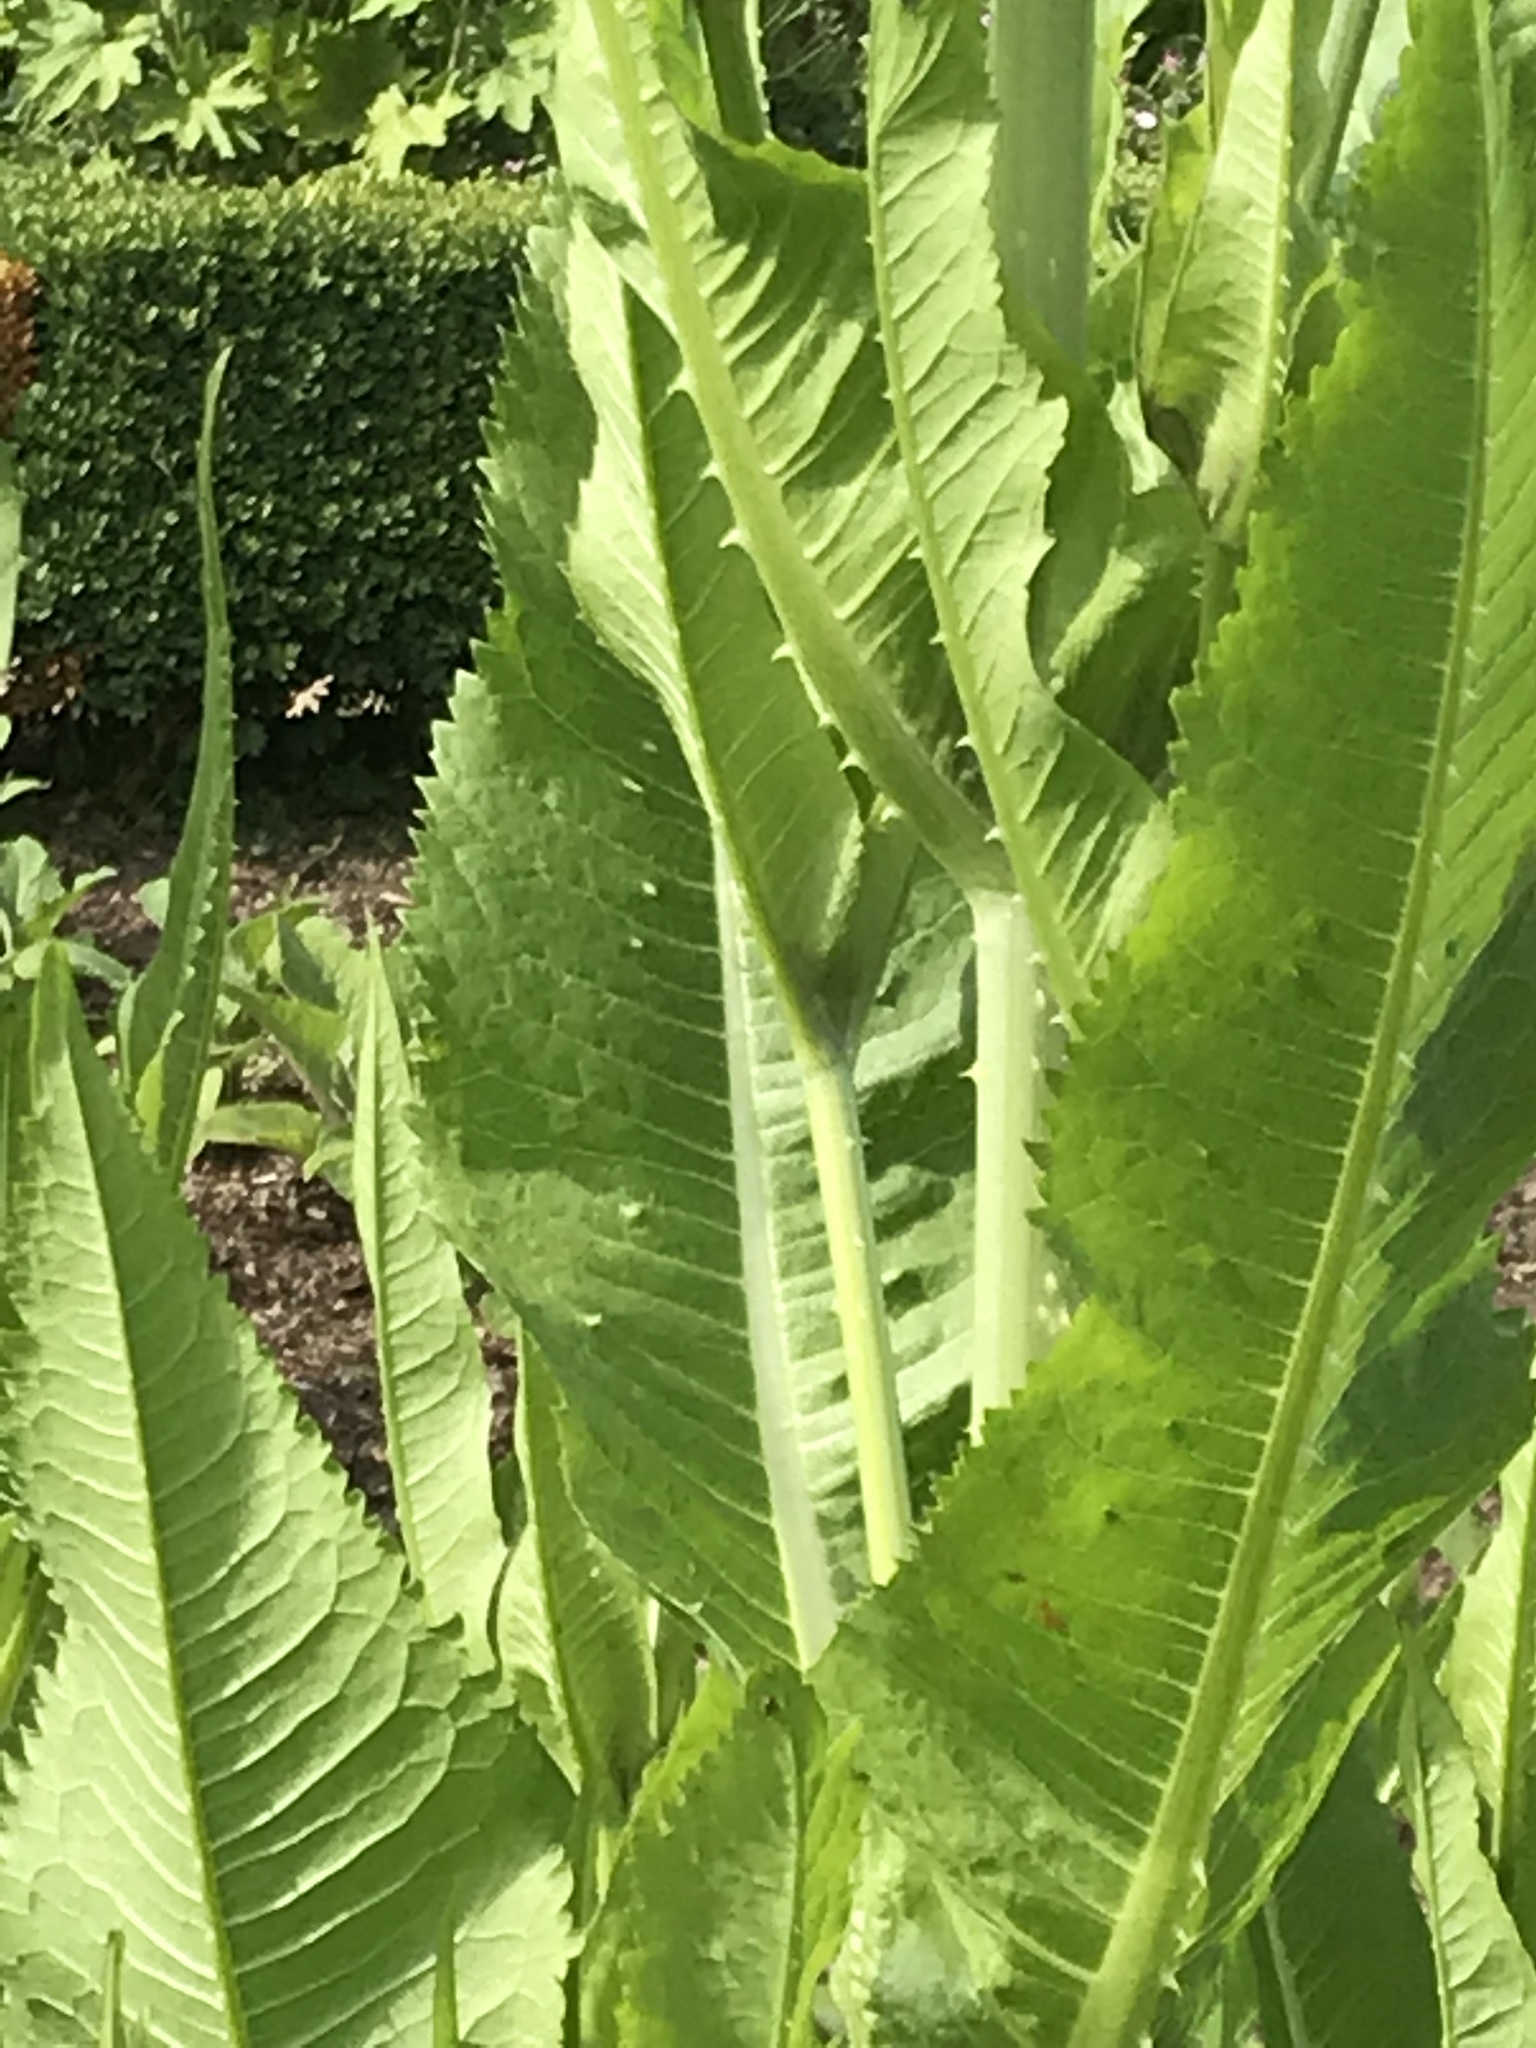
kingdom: Plantae
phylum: Tracheophyta
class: Magnoliopsida
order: Dipsacales
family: Caprifoliaceae
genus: Dipsacus
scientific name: Dipsacus fullonum
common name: Teasel
